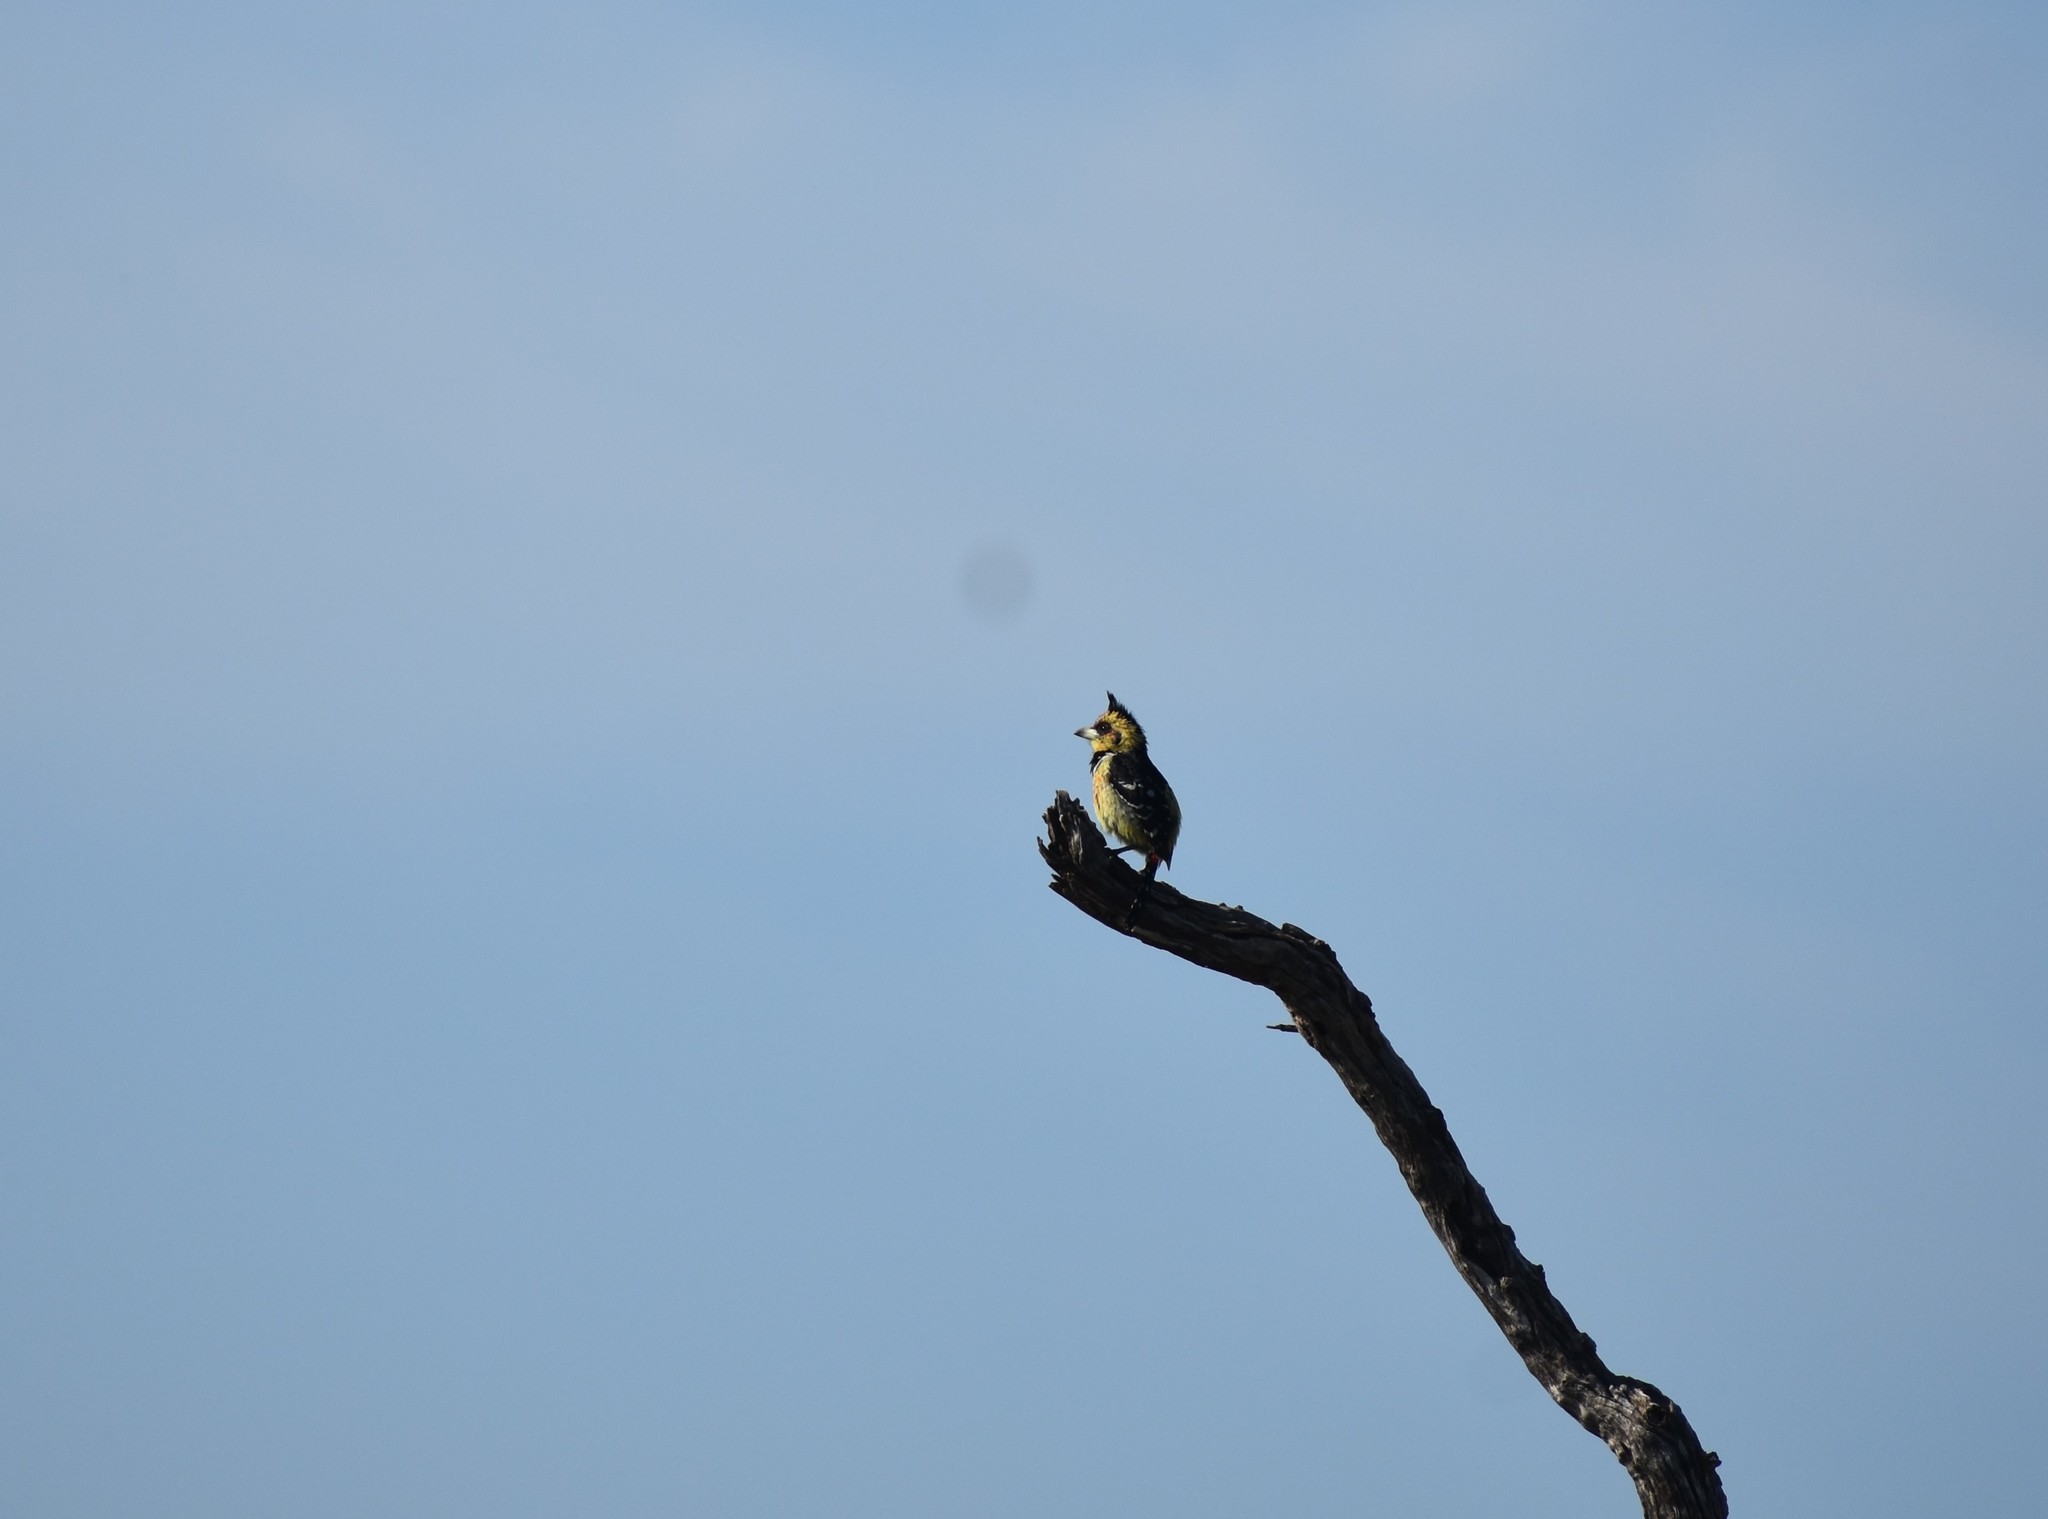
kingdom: Animalia
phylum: Chordata
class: Aves
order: Piciformes
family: Lybiidae
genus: Trachyphonus
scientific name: Trachyphonus vaillantii
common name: Crested barbet
